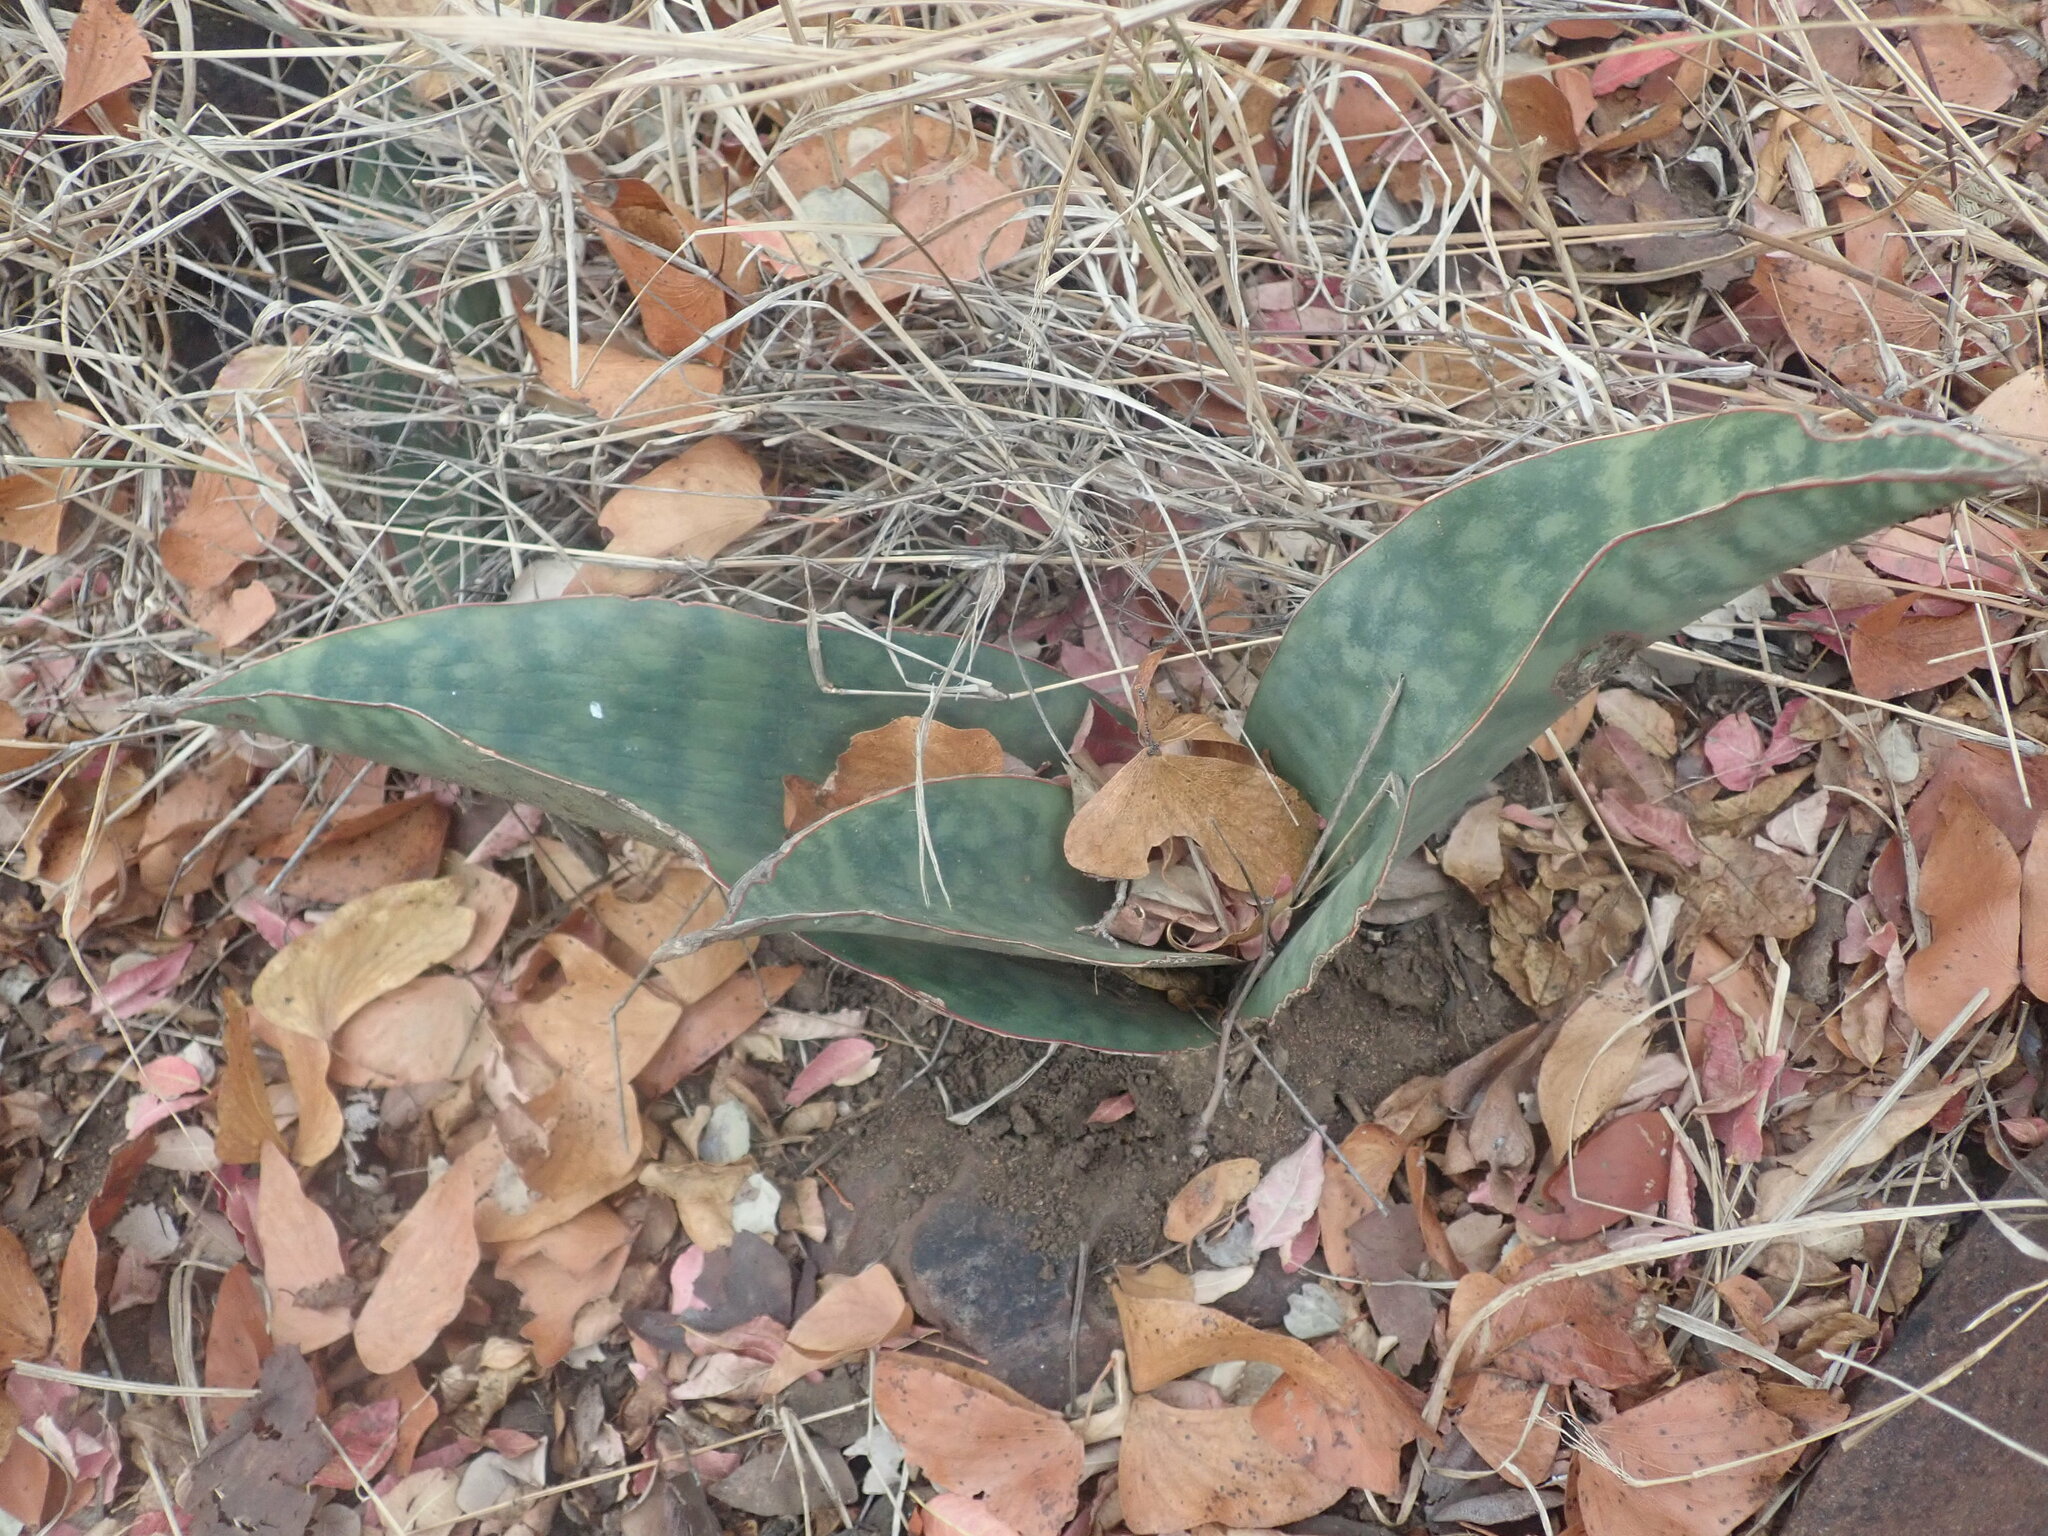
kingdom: Plantae
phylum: Tracheophyta
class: Liliopsida
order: Asparagales
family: Asparagaceae
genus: Dracaena
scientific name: Dracaena hyacinthoides
